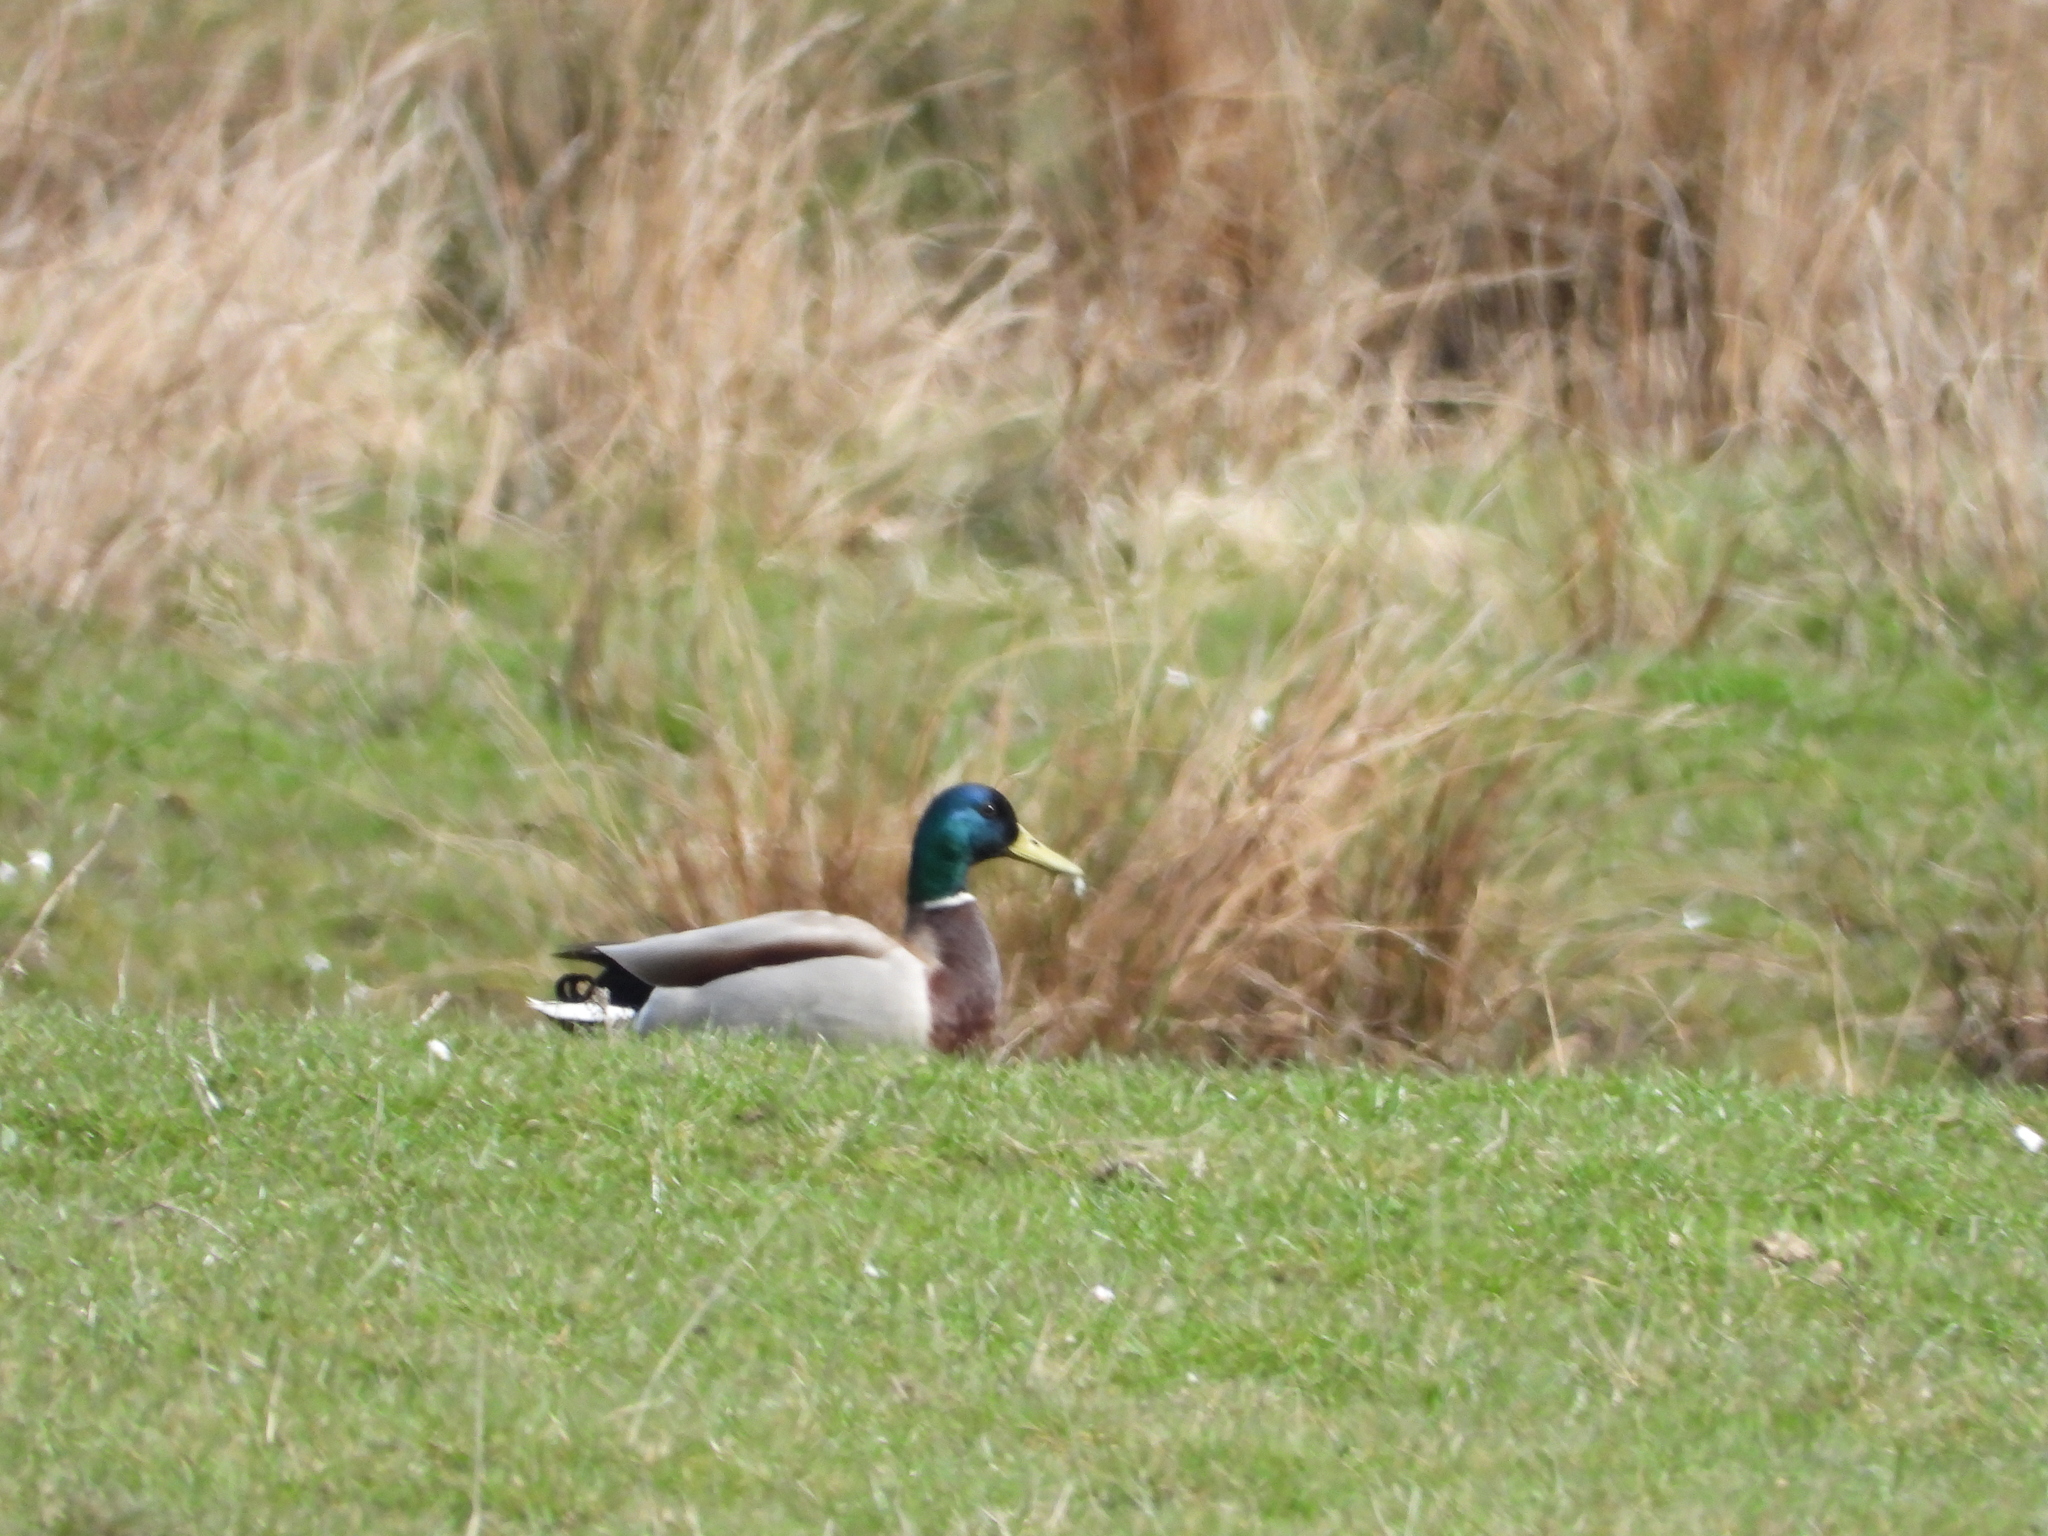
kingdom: Animalia
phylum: Chordata
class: Aves
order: Anseriformes
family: Anatidae
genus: Anas
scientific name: Anas platyrhynchos
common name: Mallard
